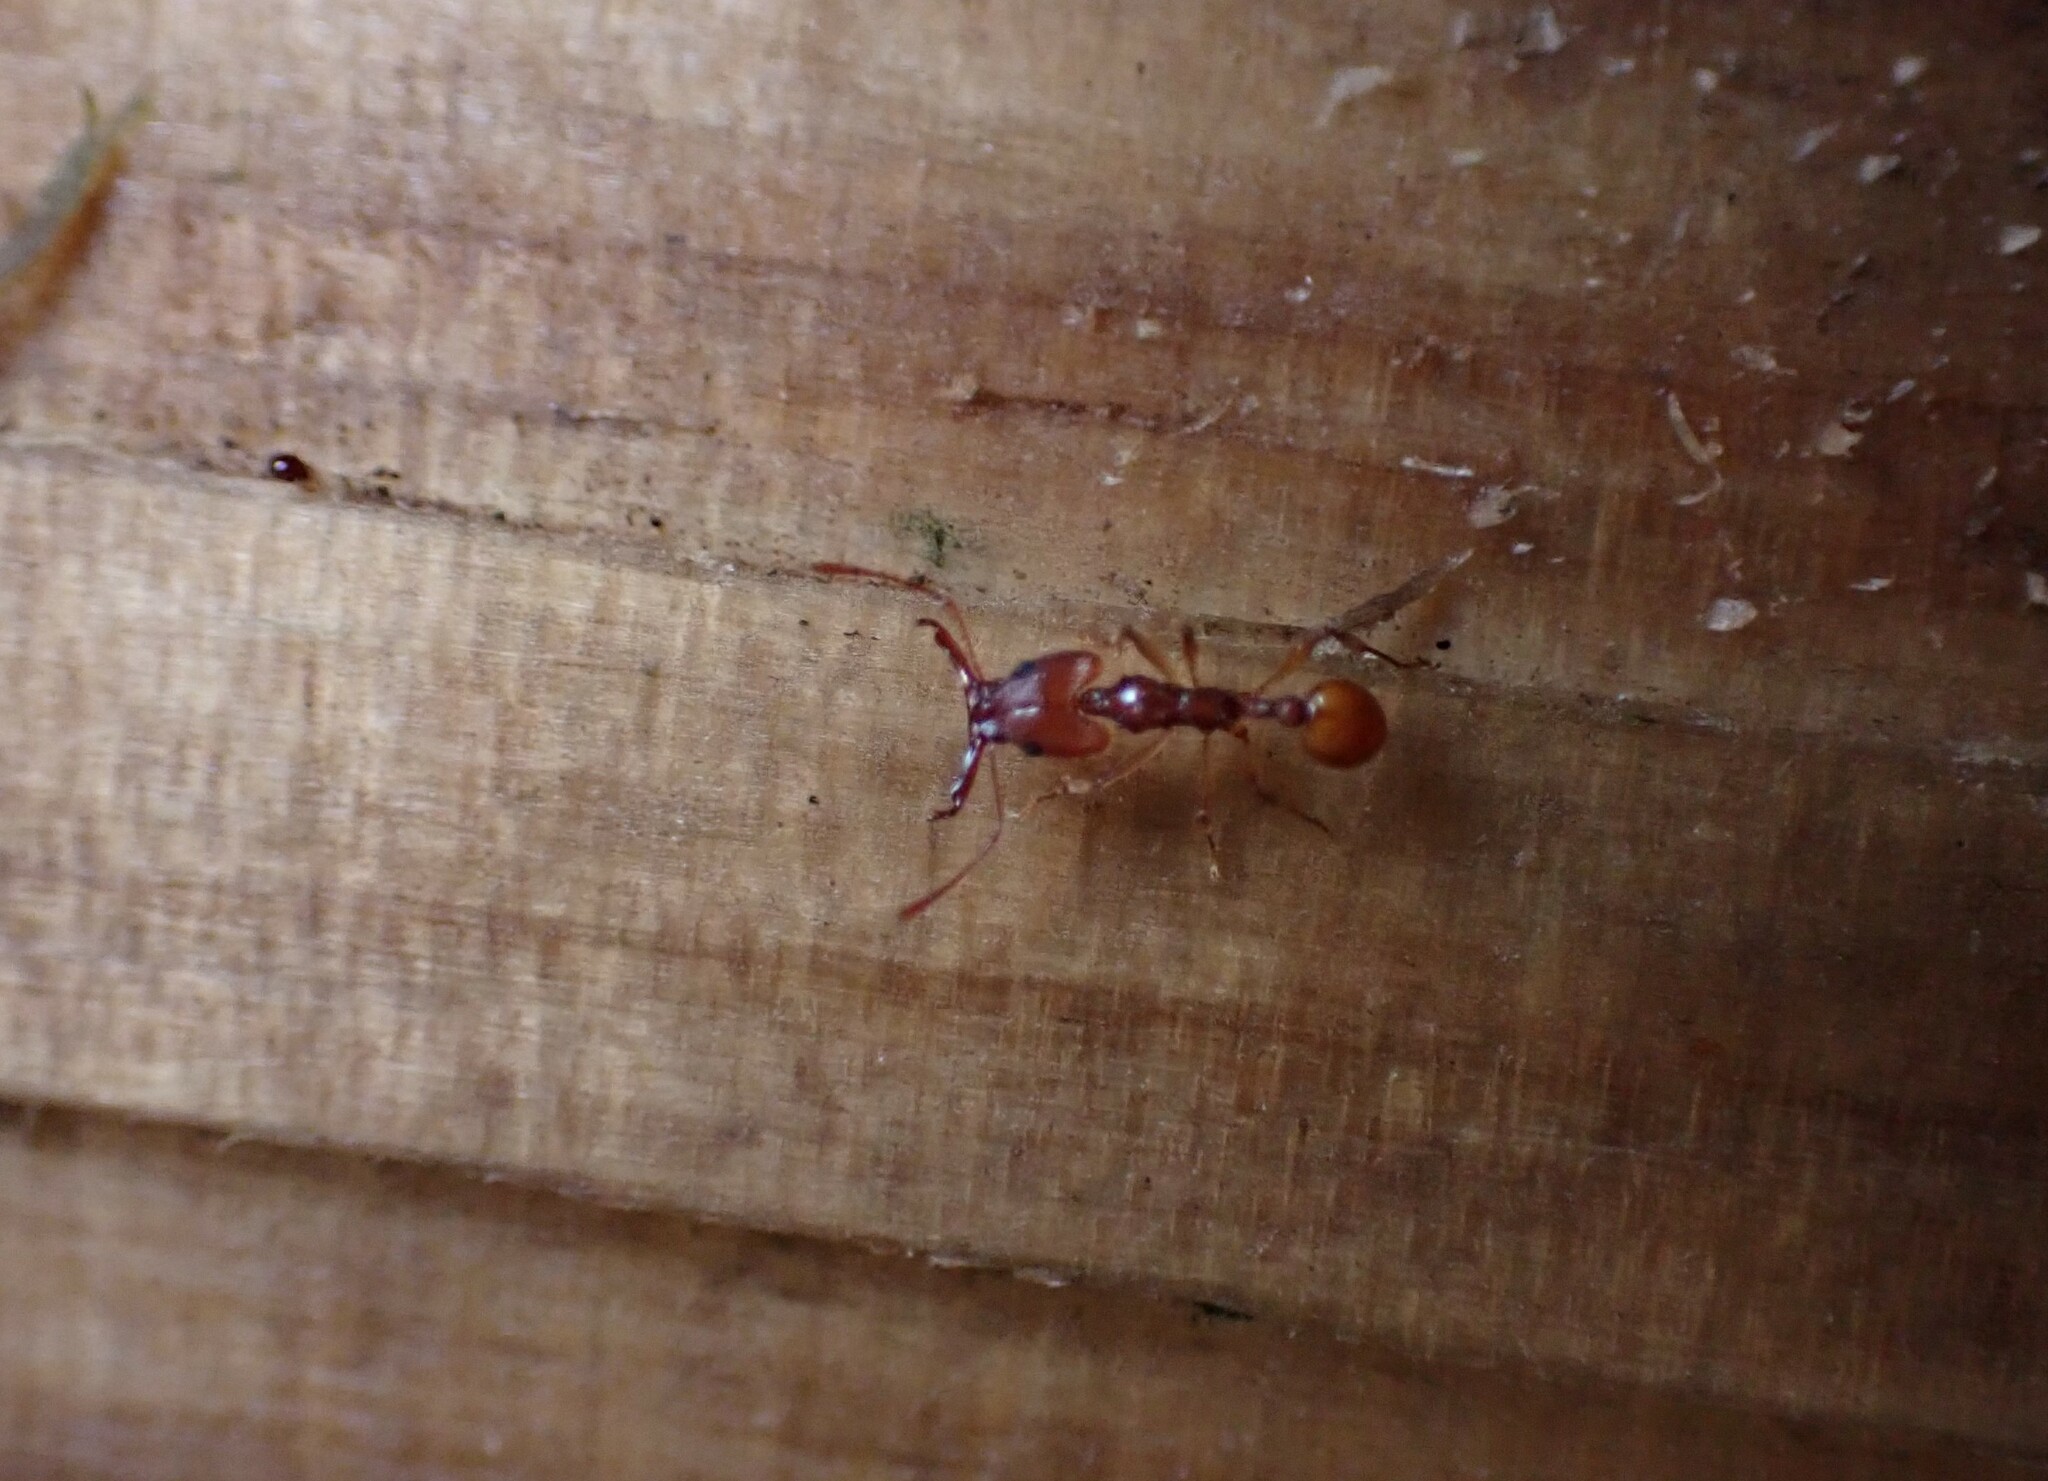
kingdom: Animalia
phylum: Arthropoda
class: Insecta
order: Hymenoptera
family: Formicidae
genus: Orectognathus
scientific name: Orectognathus antennatus
